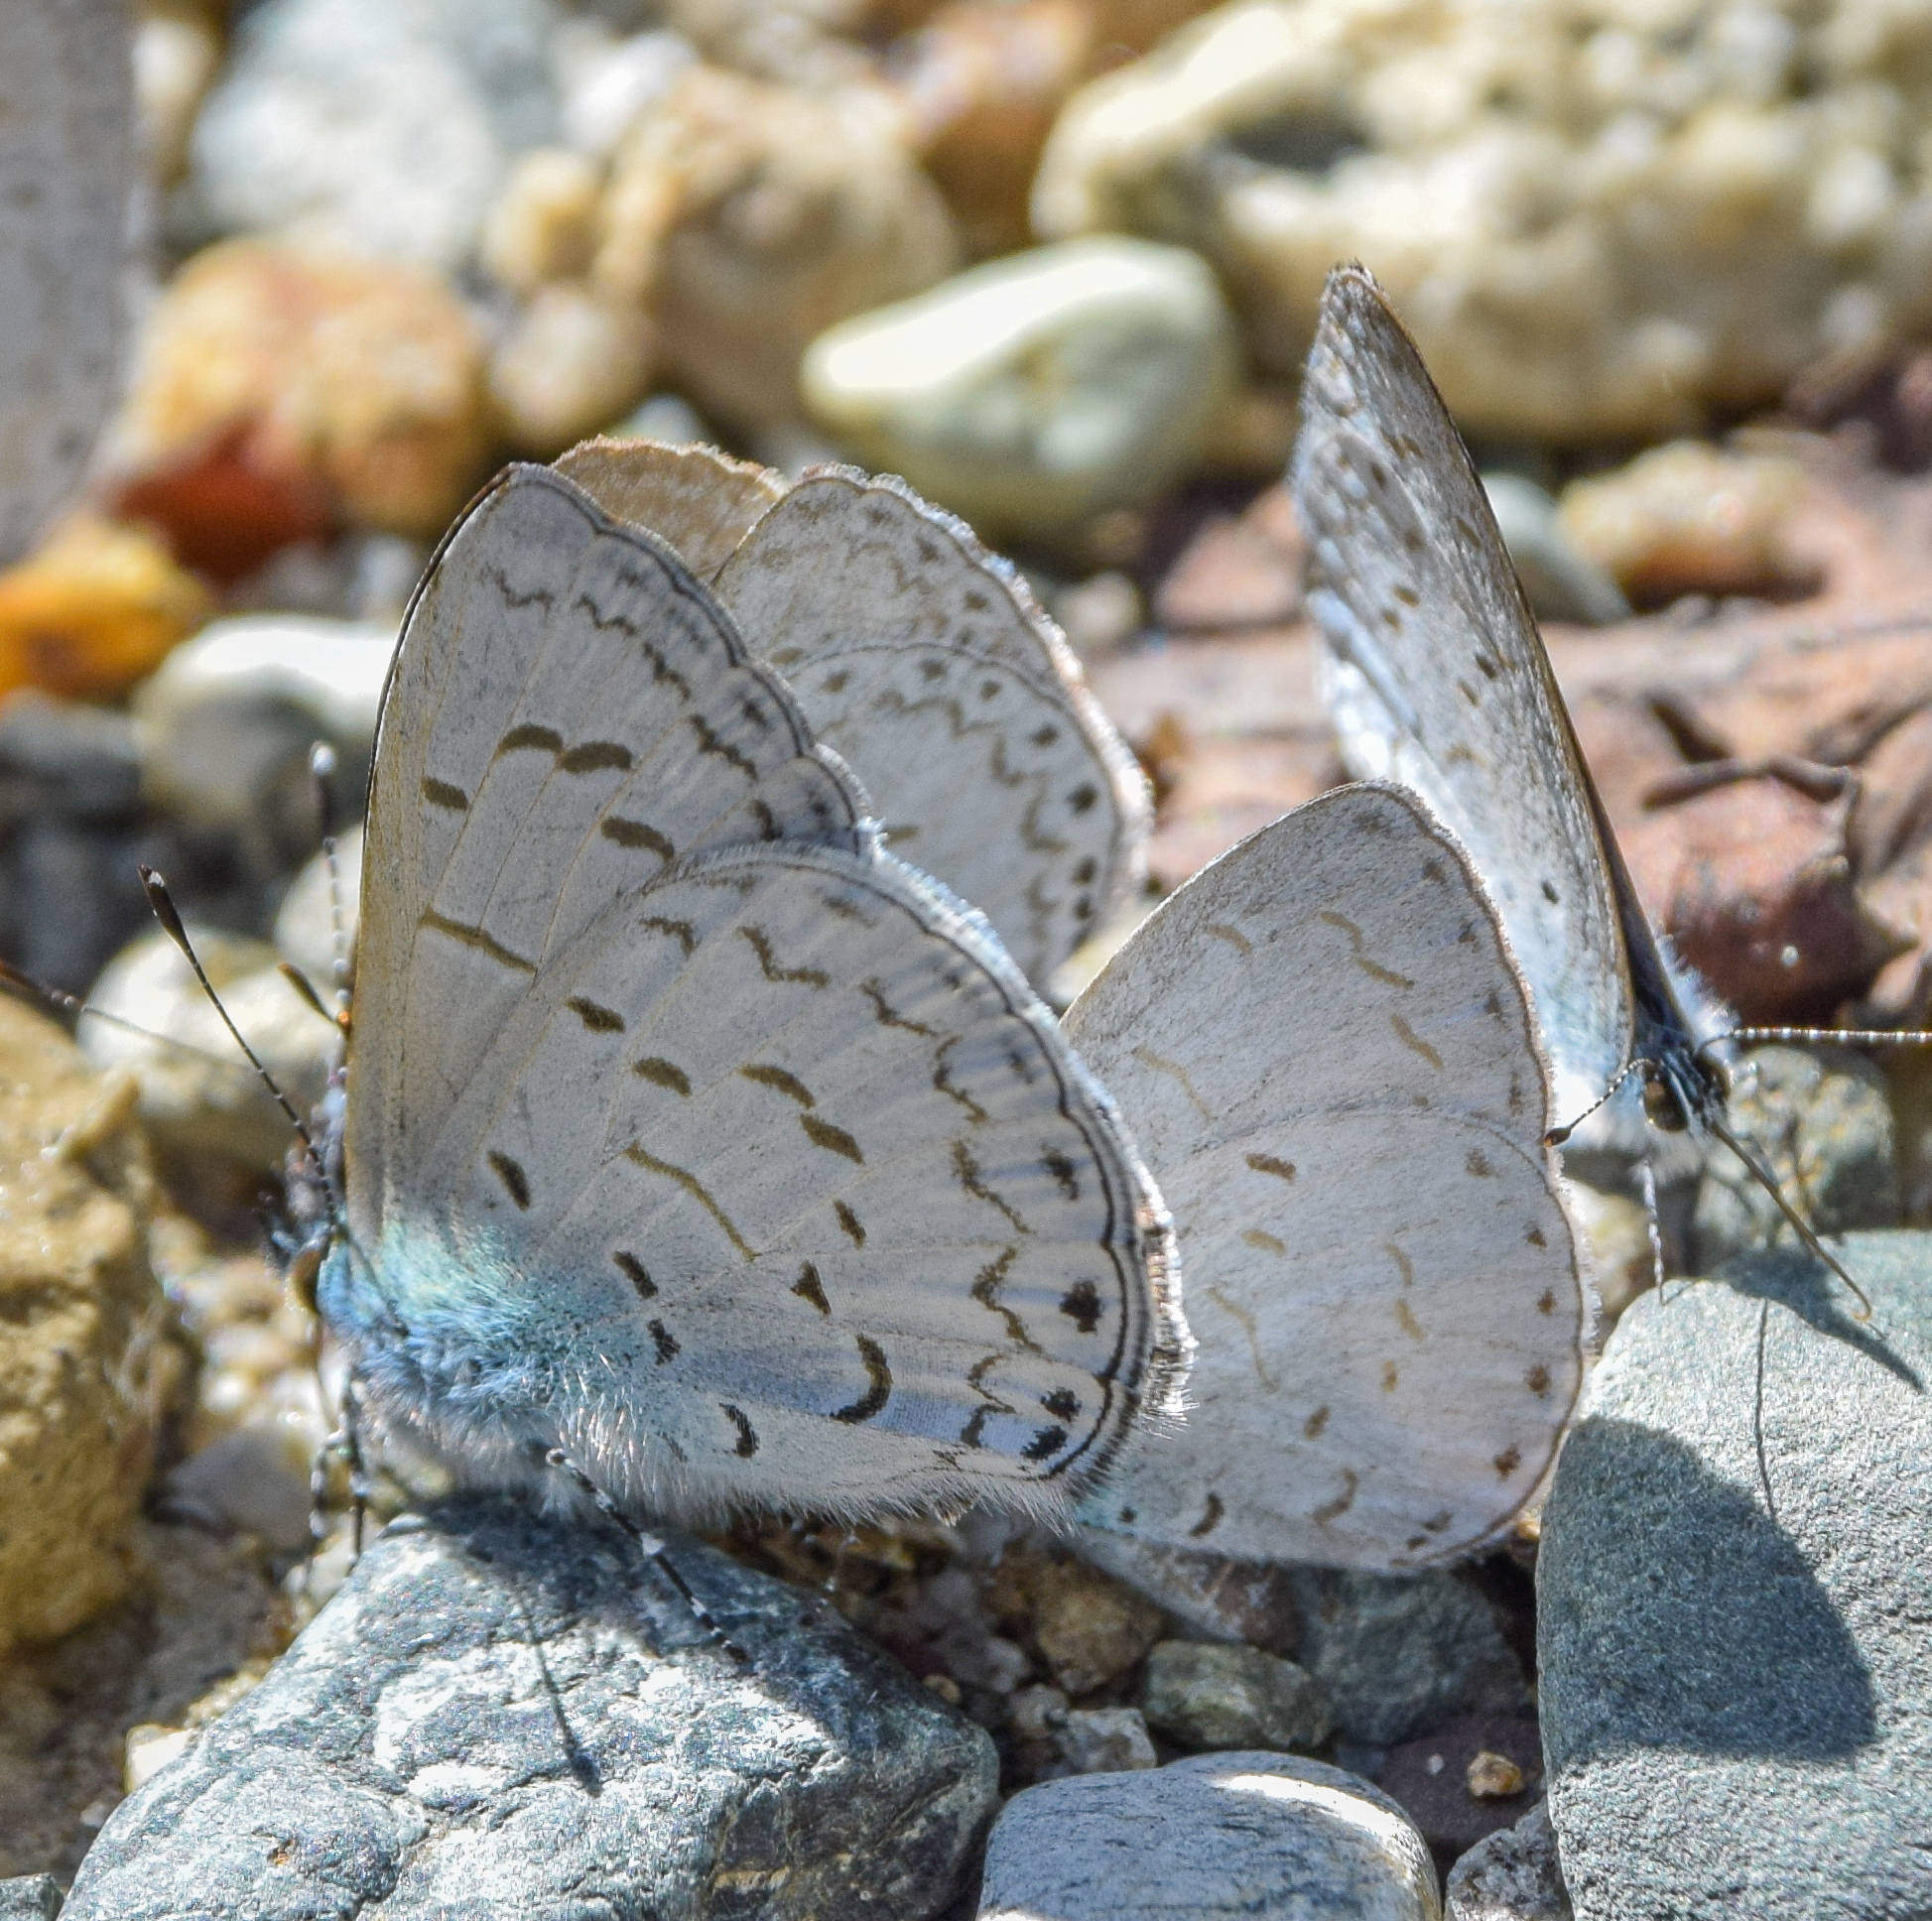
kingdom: Animalia
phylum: Arthropoda
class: Insecta
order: Lepidoptera
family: Lycaenidae
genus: Lycaenopsis
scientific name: Lycaenopsis tsukadai
